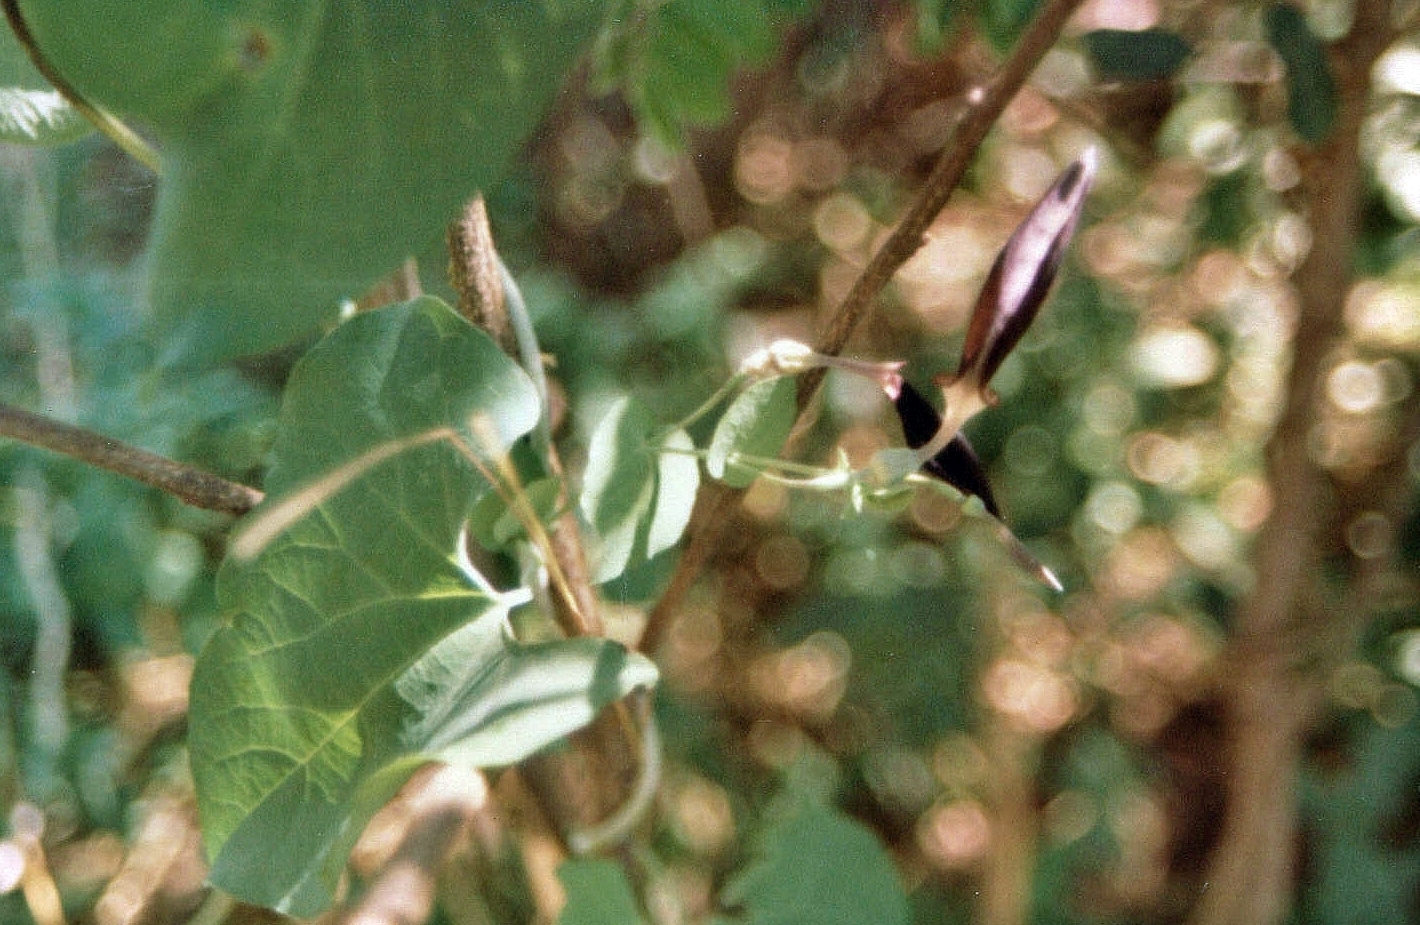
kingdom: Plantae
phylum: Tracheophyta
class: Magnoliopsida
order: Piperales
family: Aristolochiaceae
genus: Aristolochia
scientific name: Aristolochia albida
